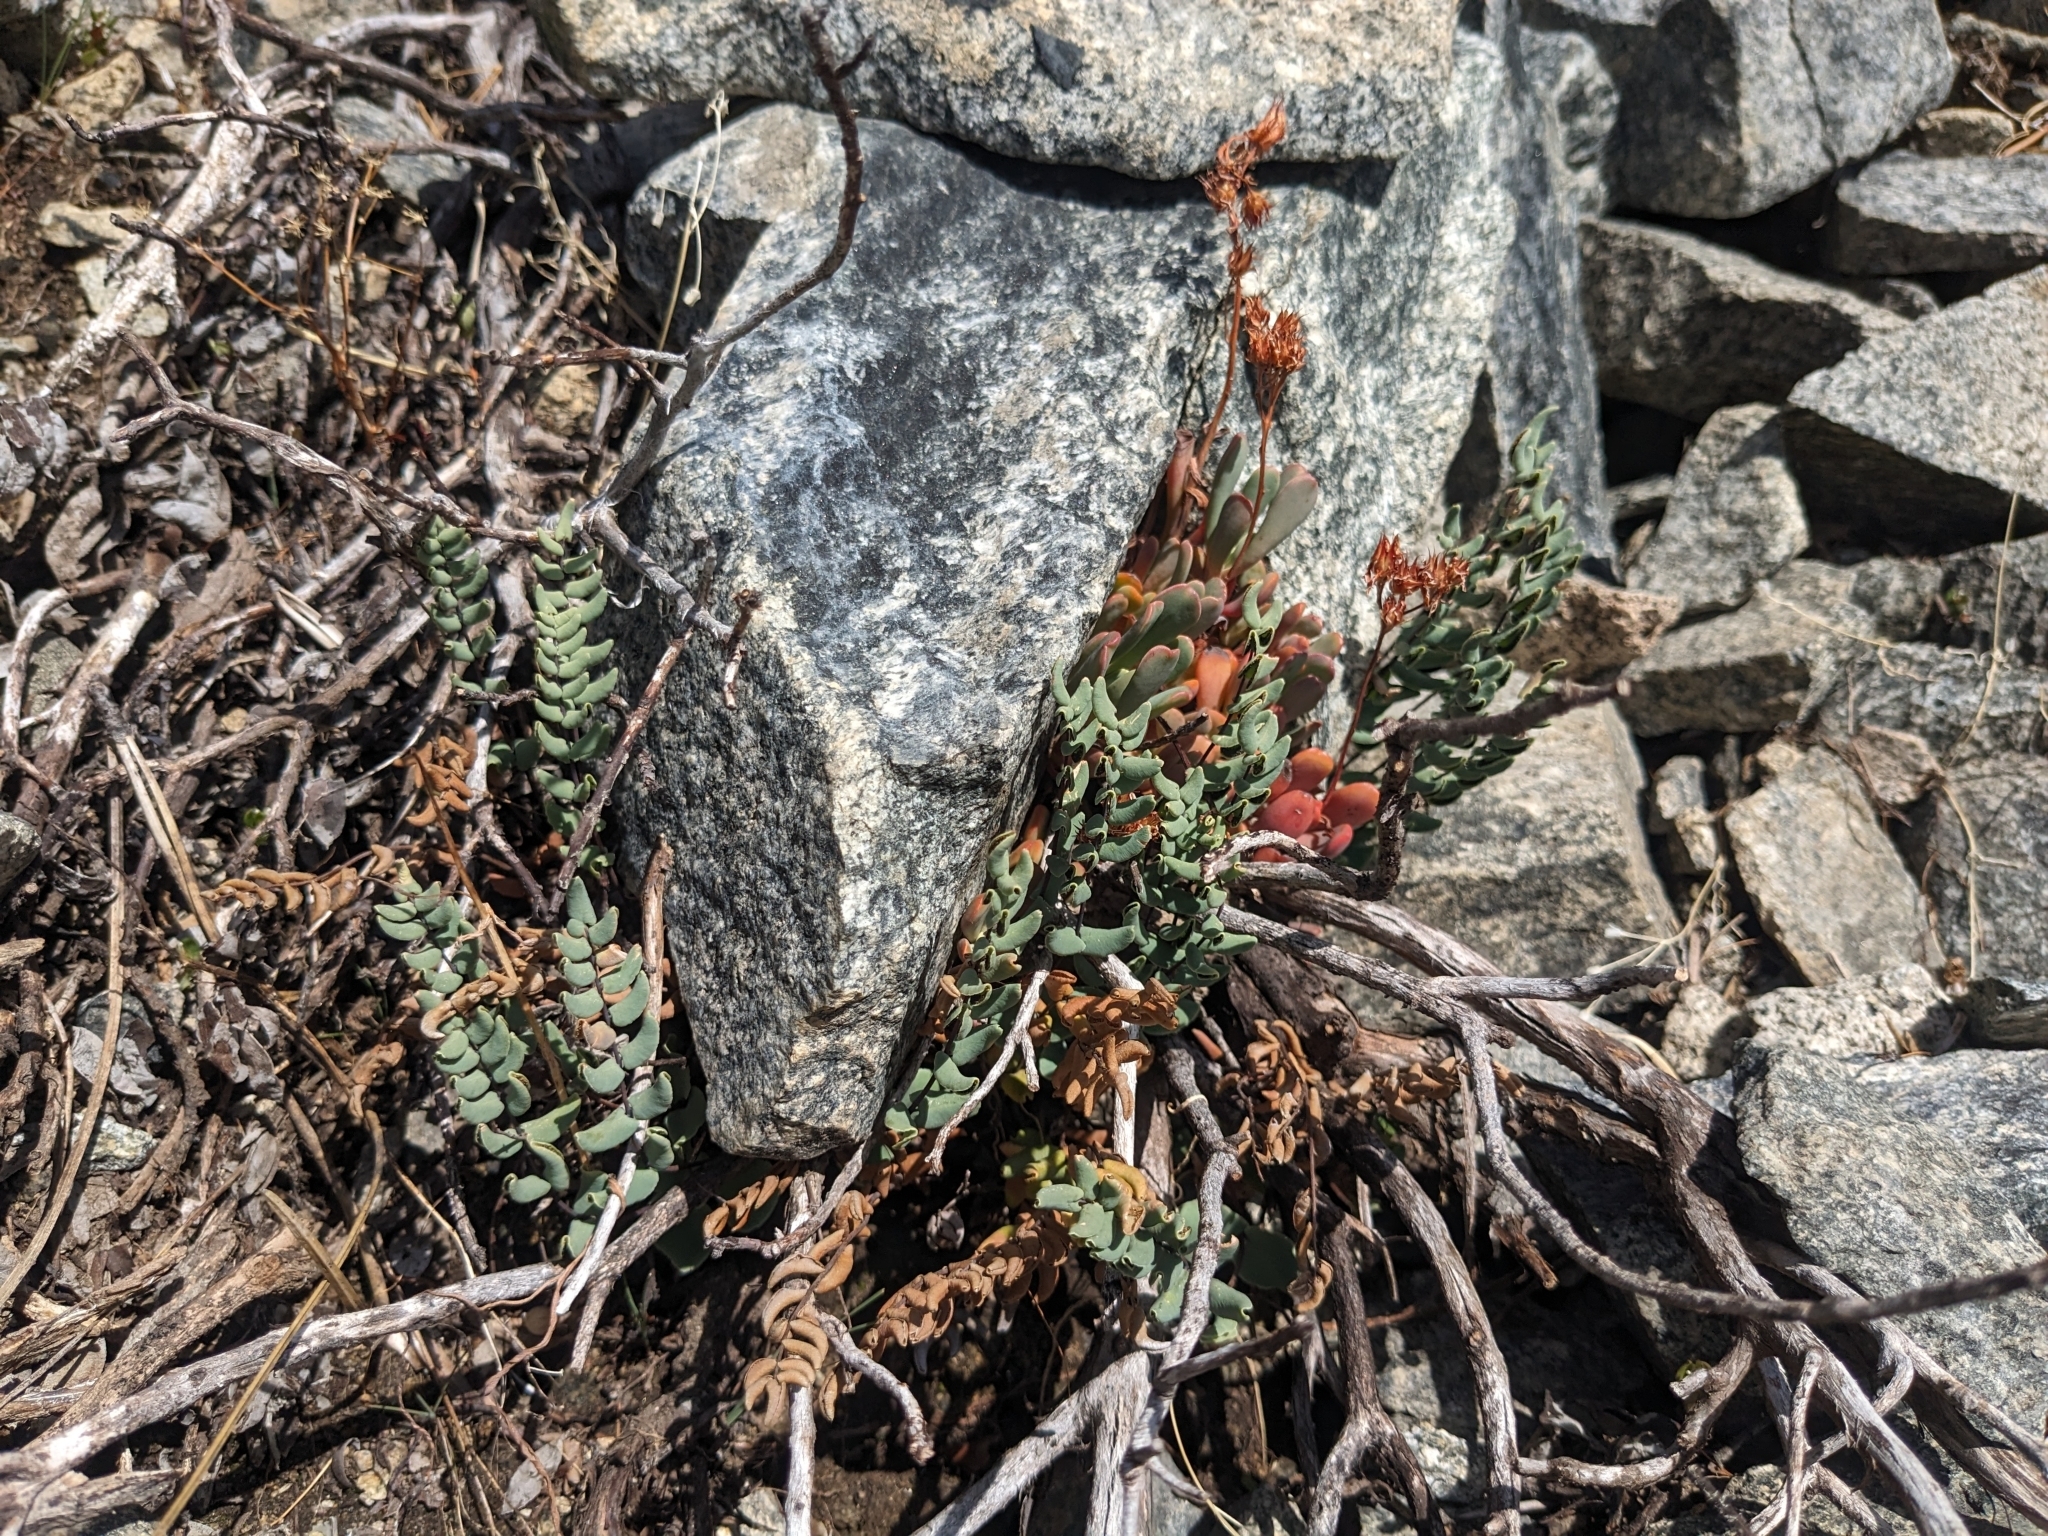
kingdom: Plantae
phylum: Tracheophyta
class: Polypodiopsida
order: Polypodiales
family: Pteridaceae
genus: Pellaea
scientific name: Pellaea bridgesii
